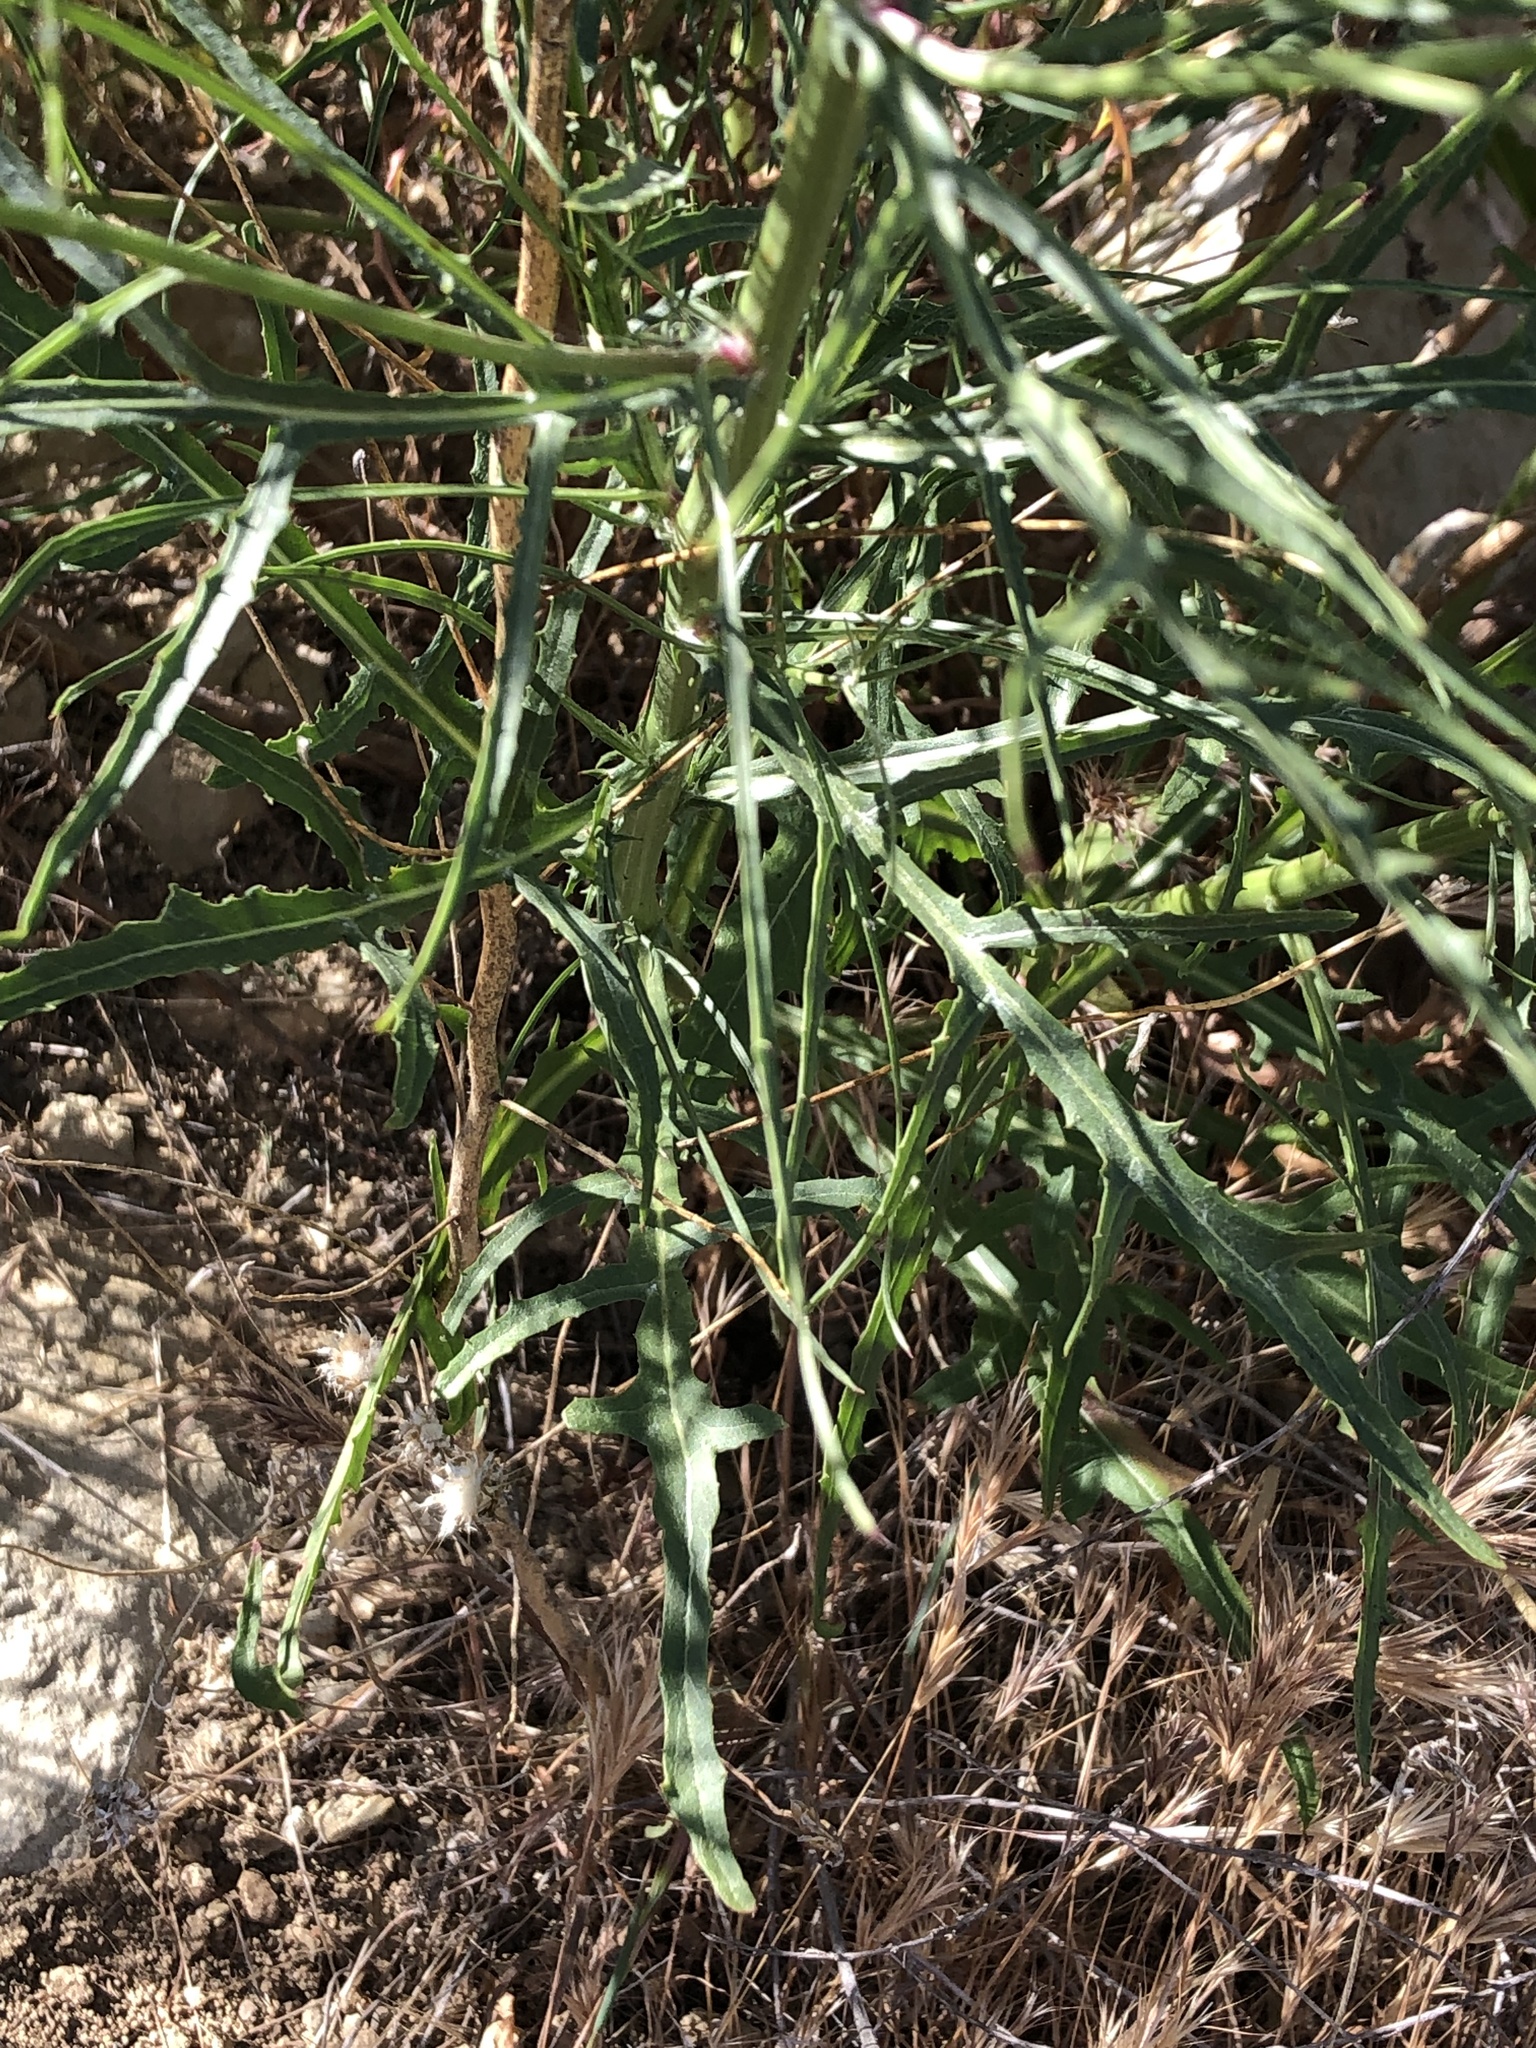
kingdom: Plantae
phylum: Tracheophyta
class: Magnoliopsida
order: Asterales
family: Asteraceae
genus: Malacothrix
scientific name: Malacothrix saxatilis
